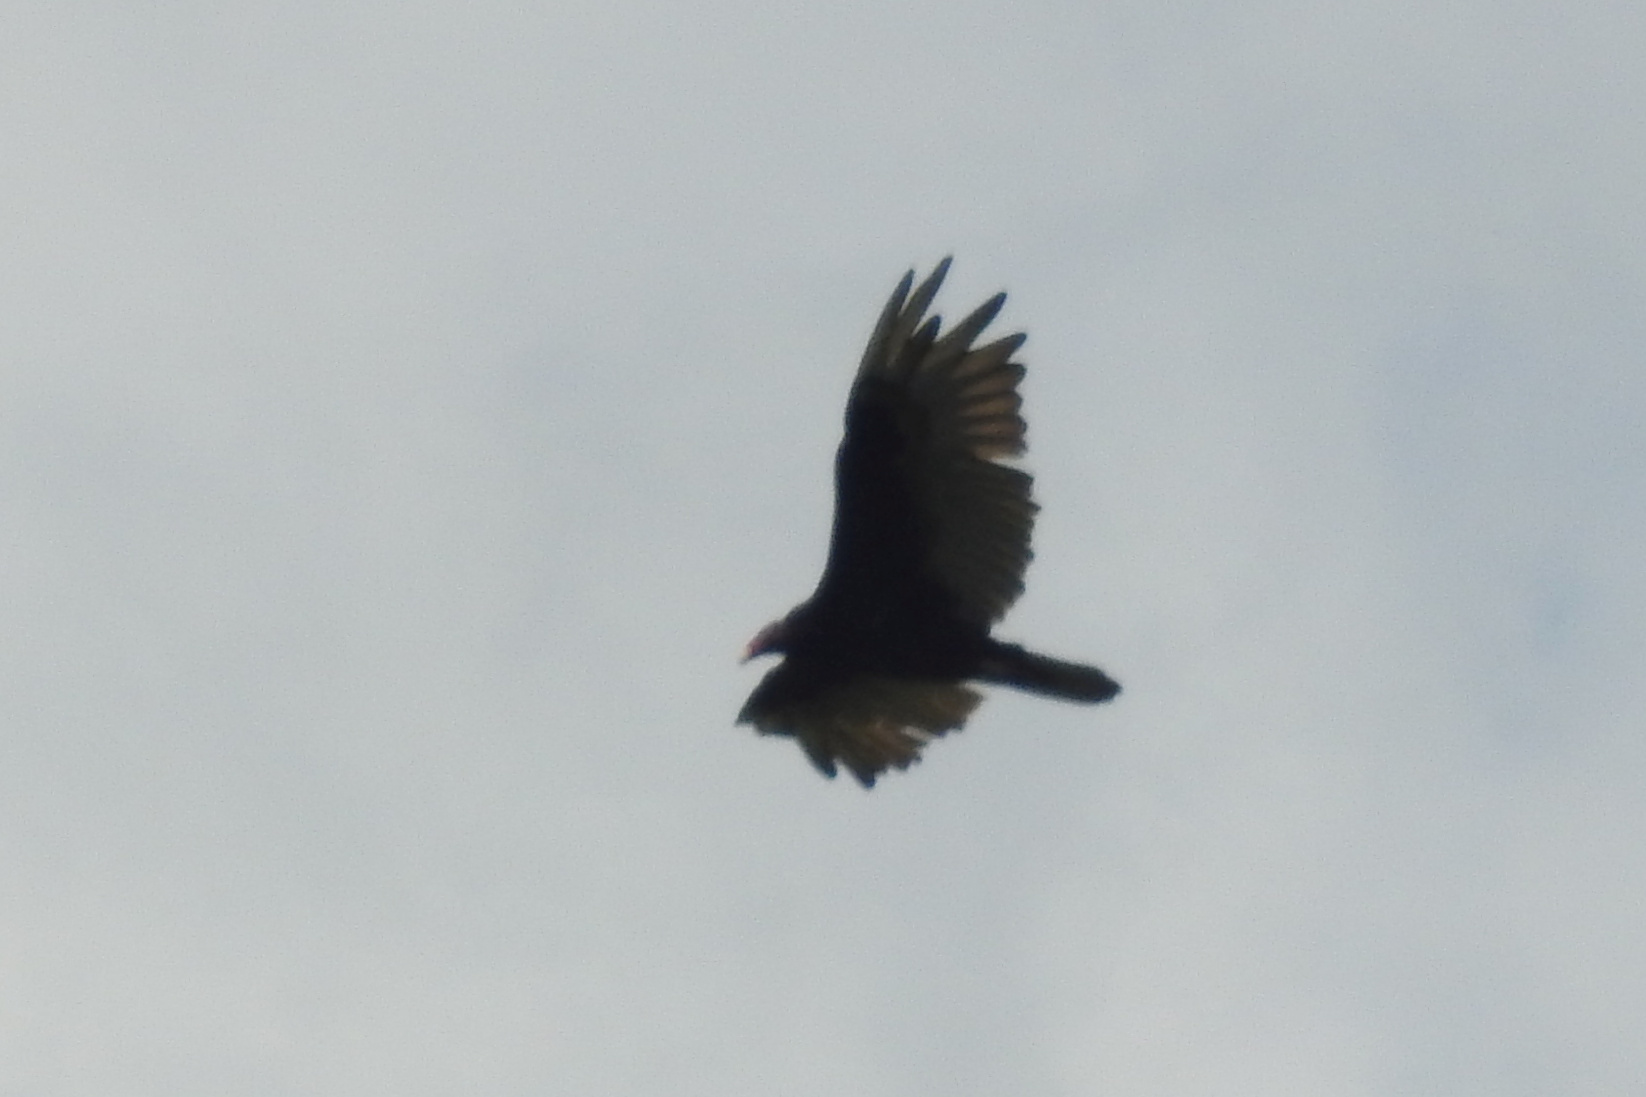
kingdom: Animalia
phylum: Chordata
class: Aves
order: Accipitriformes
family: Cathartidae
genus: Cathartes
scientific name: Cathartes aura
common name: Turkey vulture
